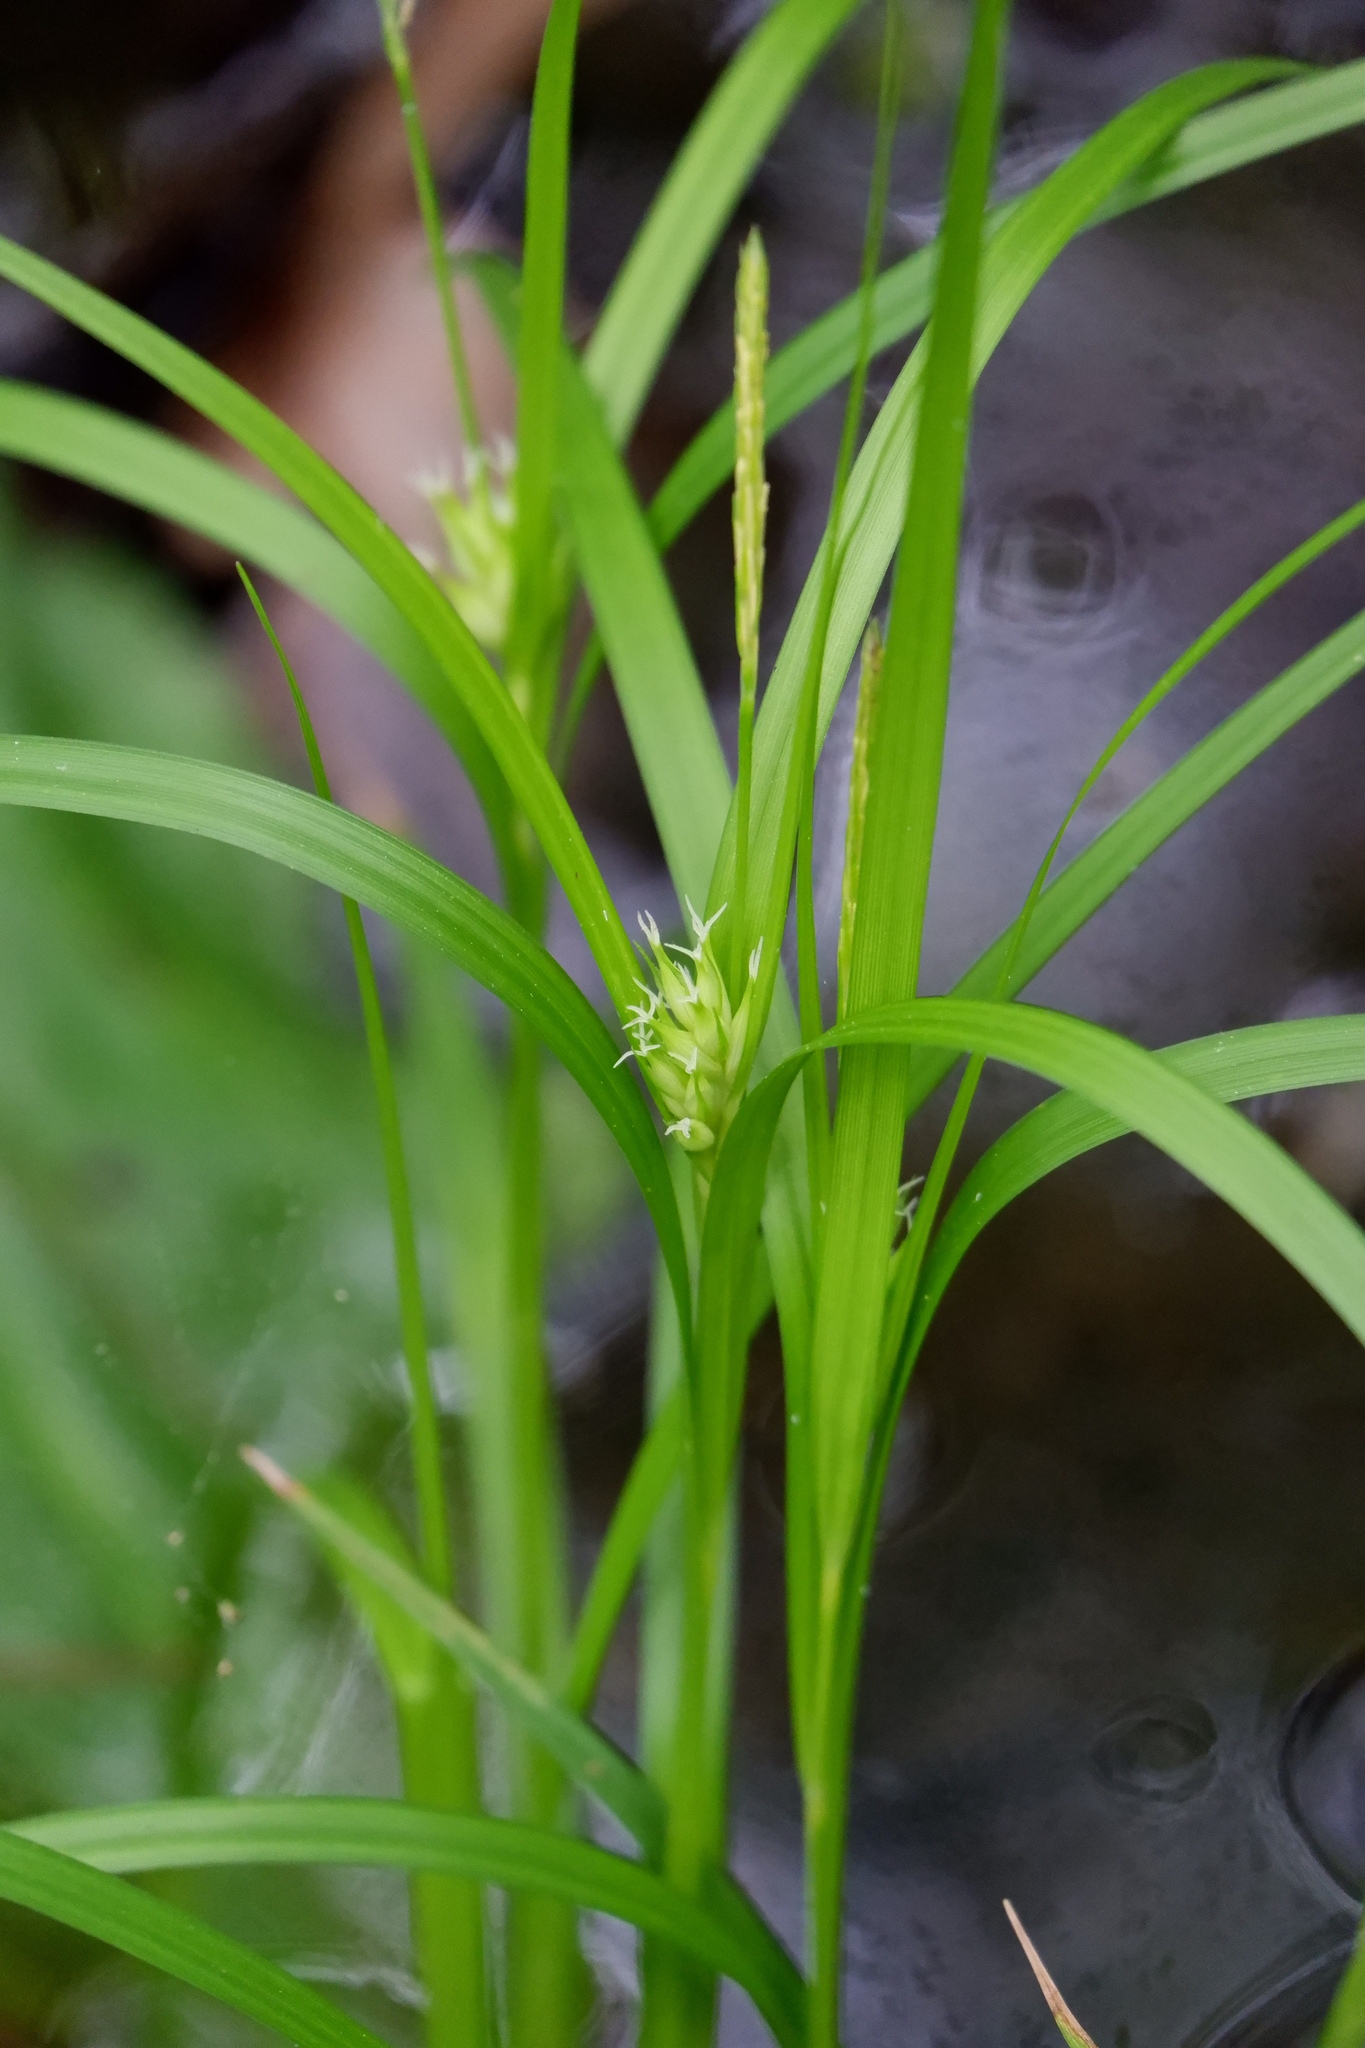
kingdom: Plantae
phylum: Tracheophyta
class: Liliopsida
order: Poales
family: Cyperaceae
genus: Carex
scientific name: Carex intumescens
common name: Greater bladder sedge
